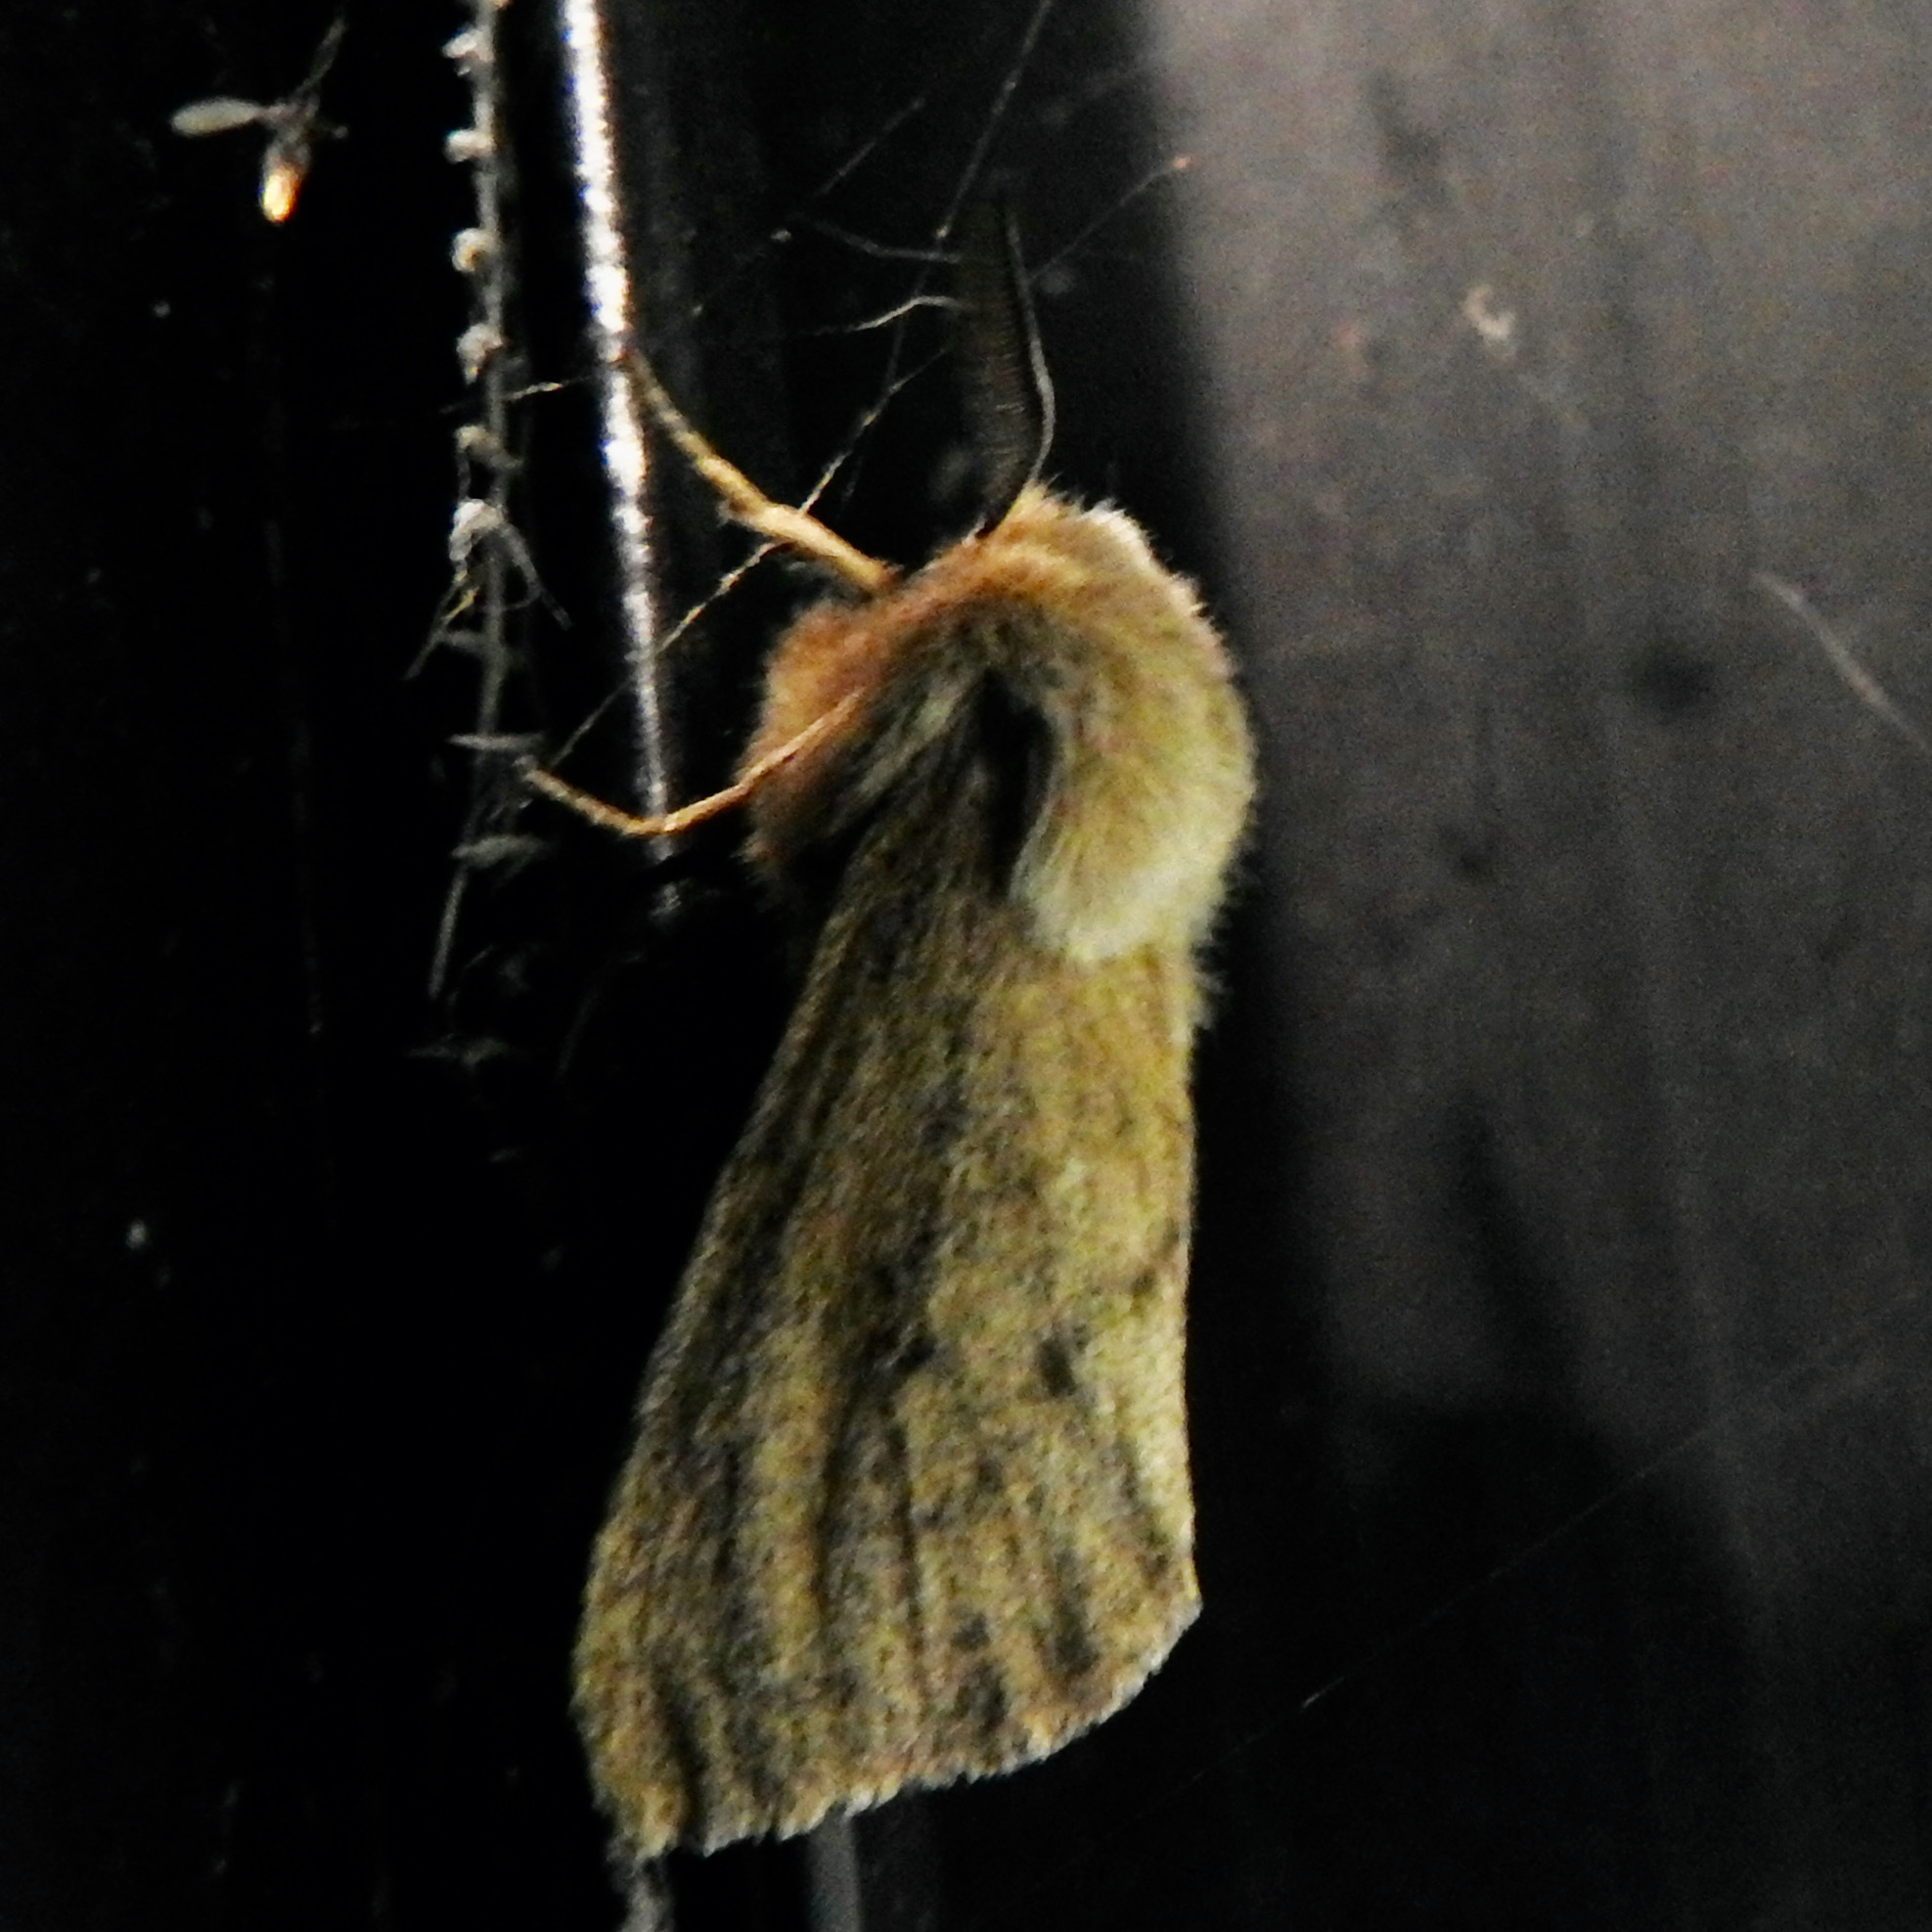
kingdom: Animalia
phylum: Arthropoda
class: Insecta
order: Lepidoptera
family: Erebidae
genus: Spilosoma
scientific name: Spilosoma vagans
